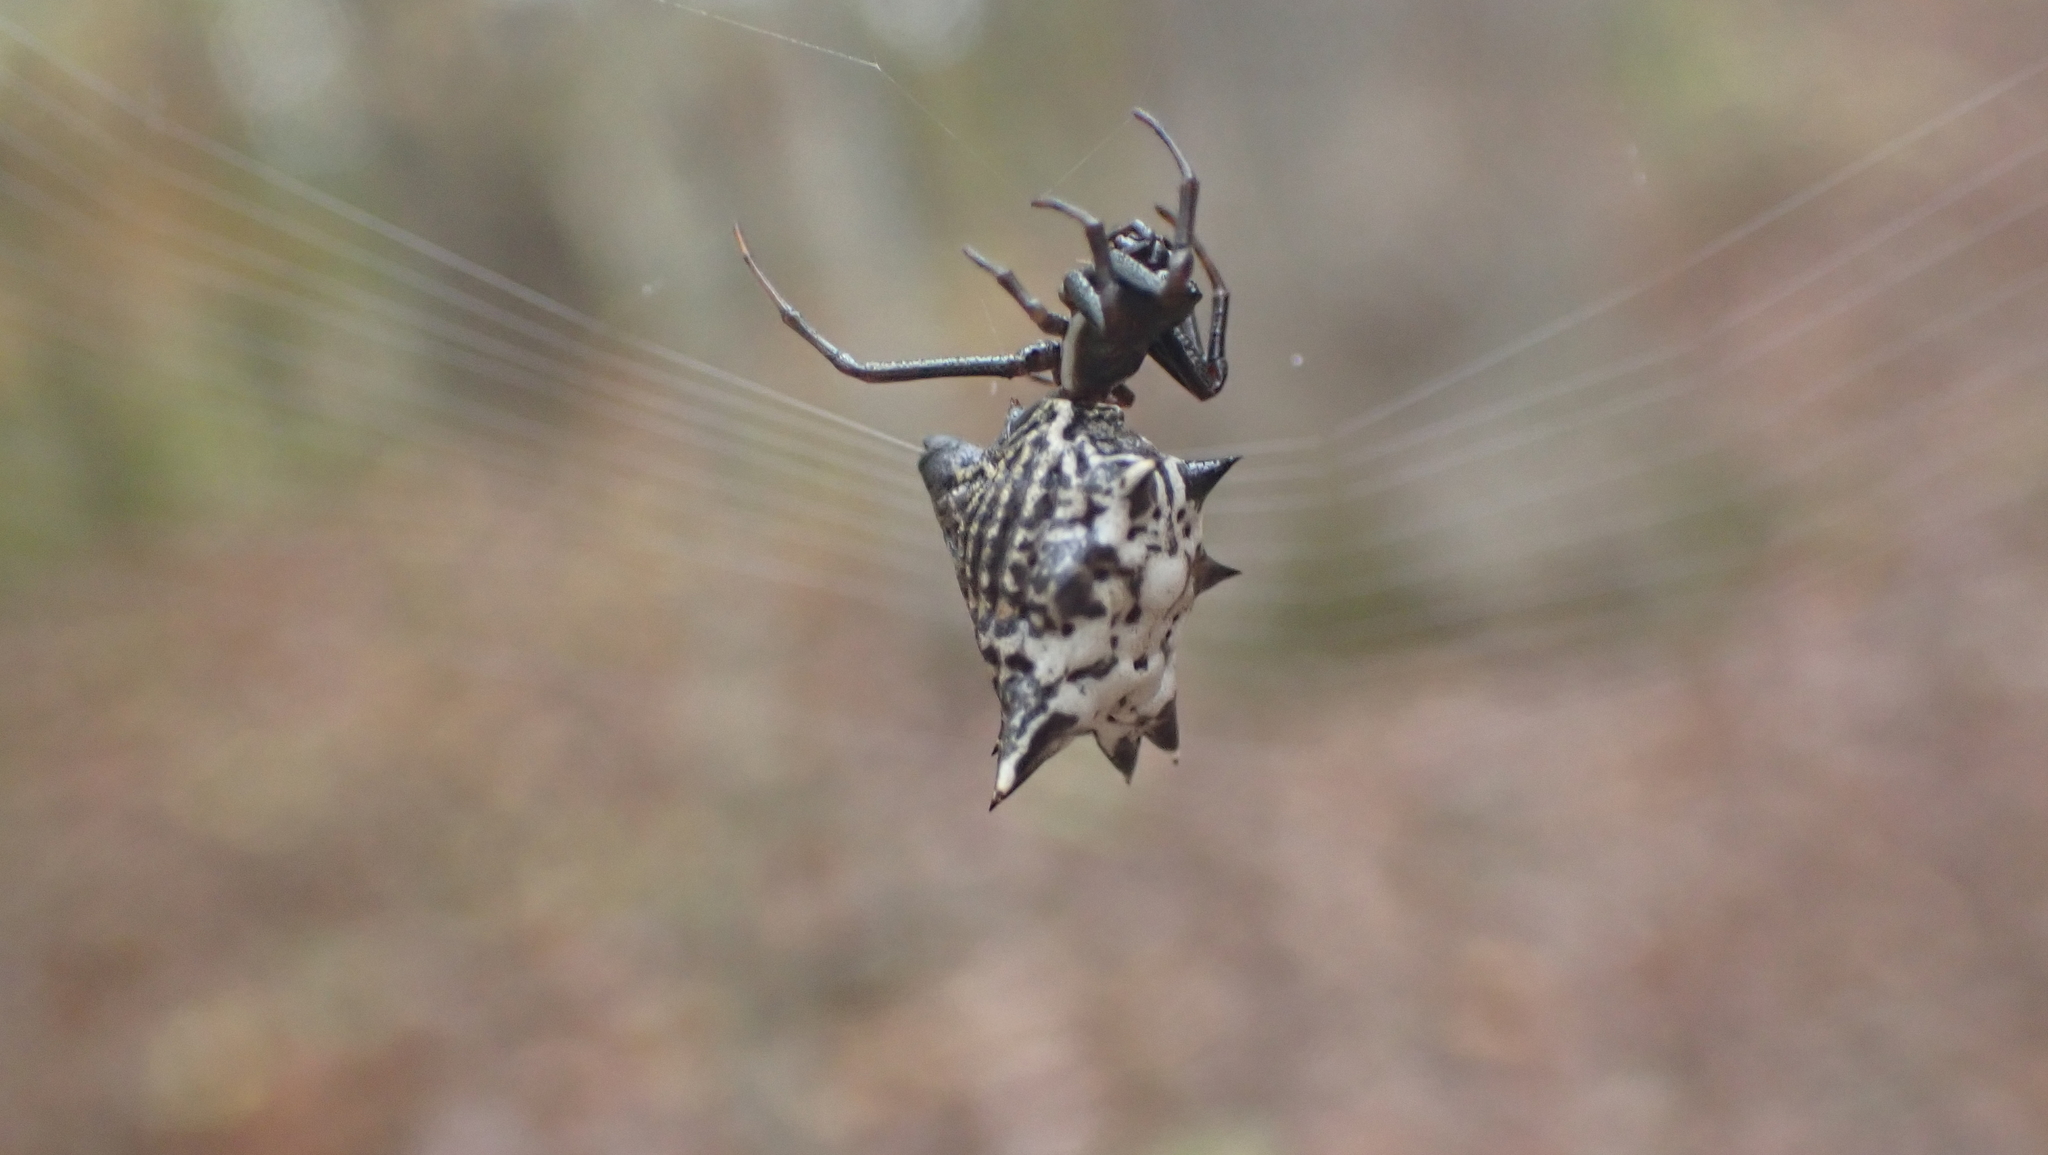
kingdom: Animalia
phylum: Arthropoda
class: Arachnida
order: Araneae
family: Araneidae
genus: Micrathena
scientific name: Micrathena gracilis
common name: Orb weavers
